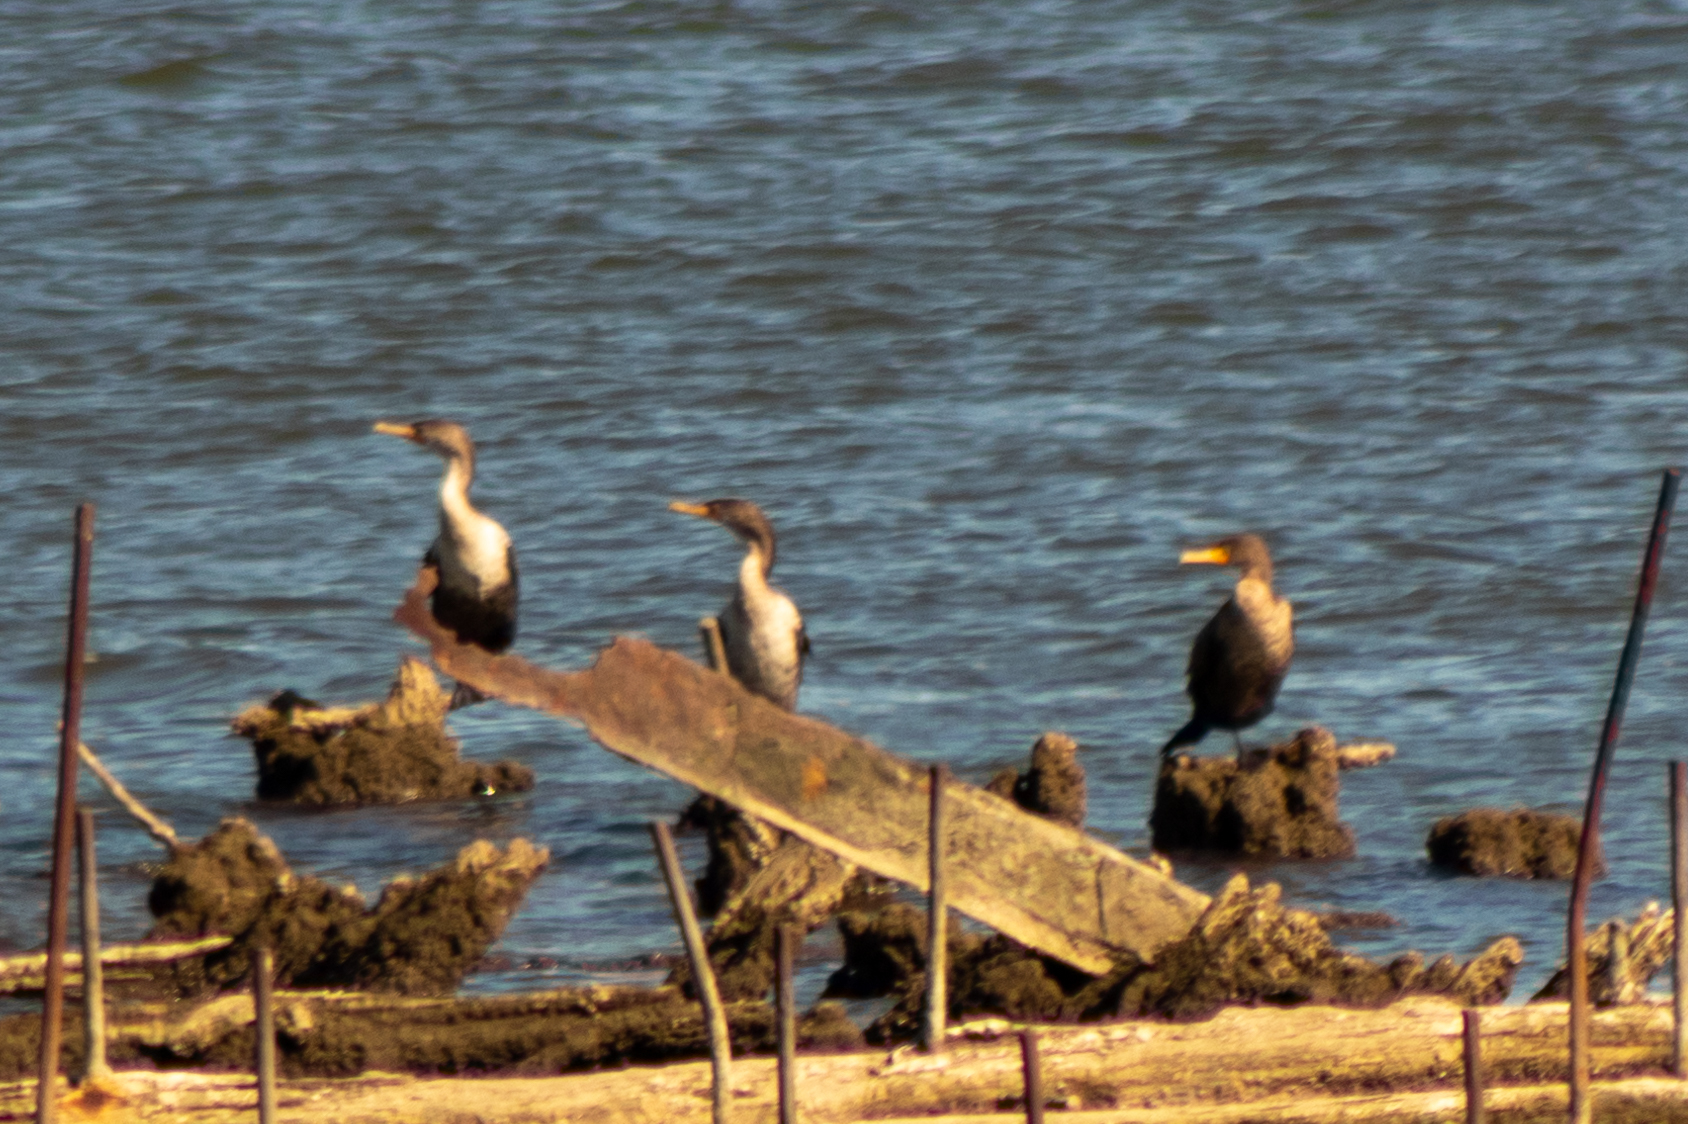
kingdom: Animalia
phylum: Chordata
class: Aves
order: Suliformes
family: Phalacrocoracidae
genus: Phalacrocorax
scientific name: Phalacrocorax auritus
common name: Double-crested cormorant
